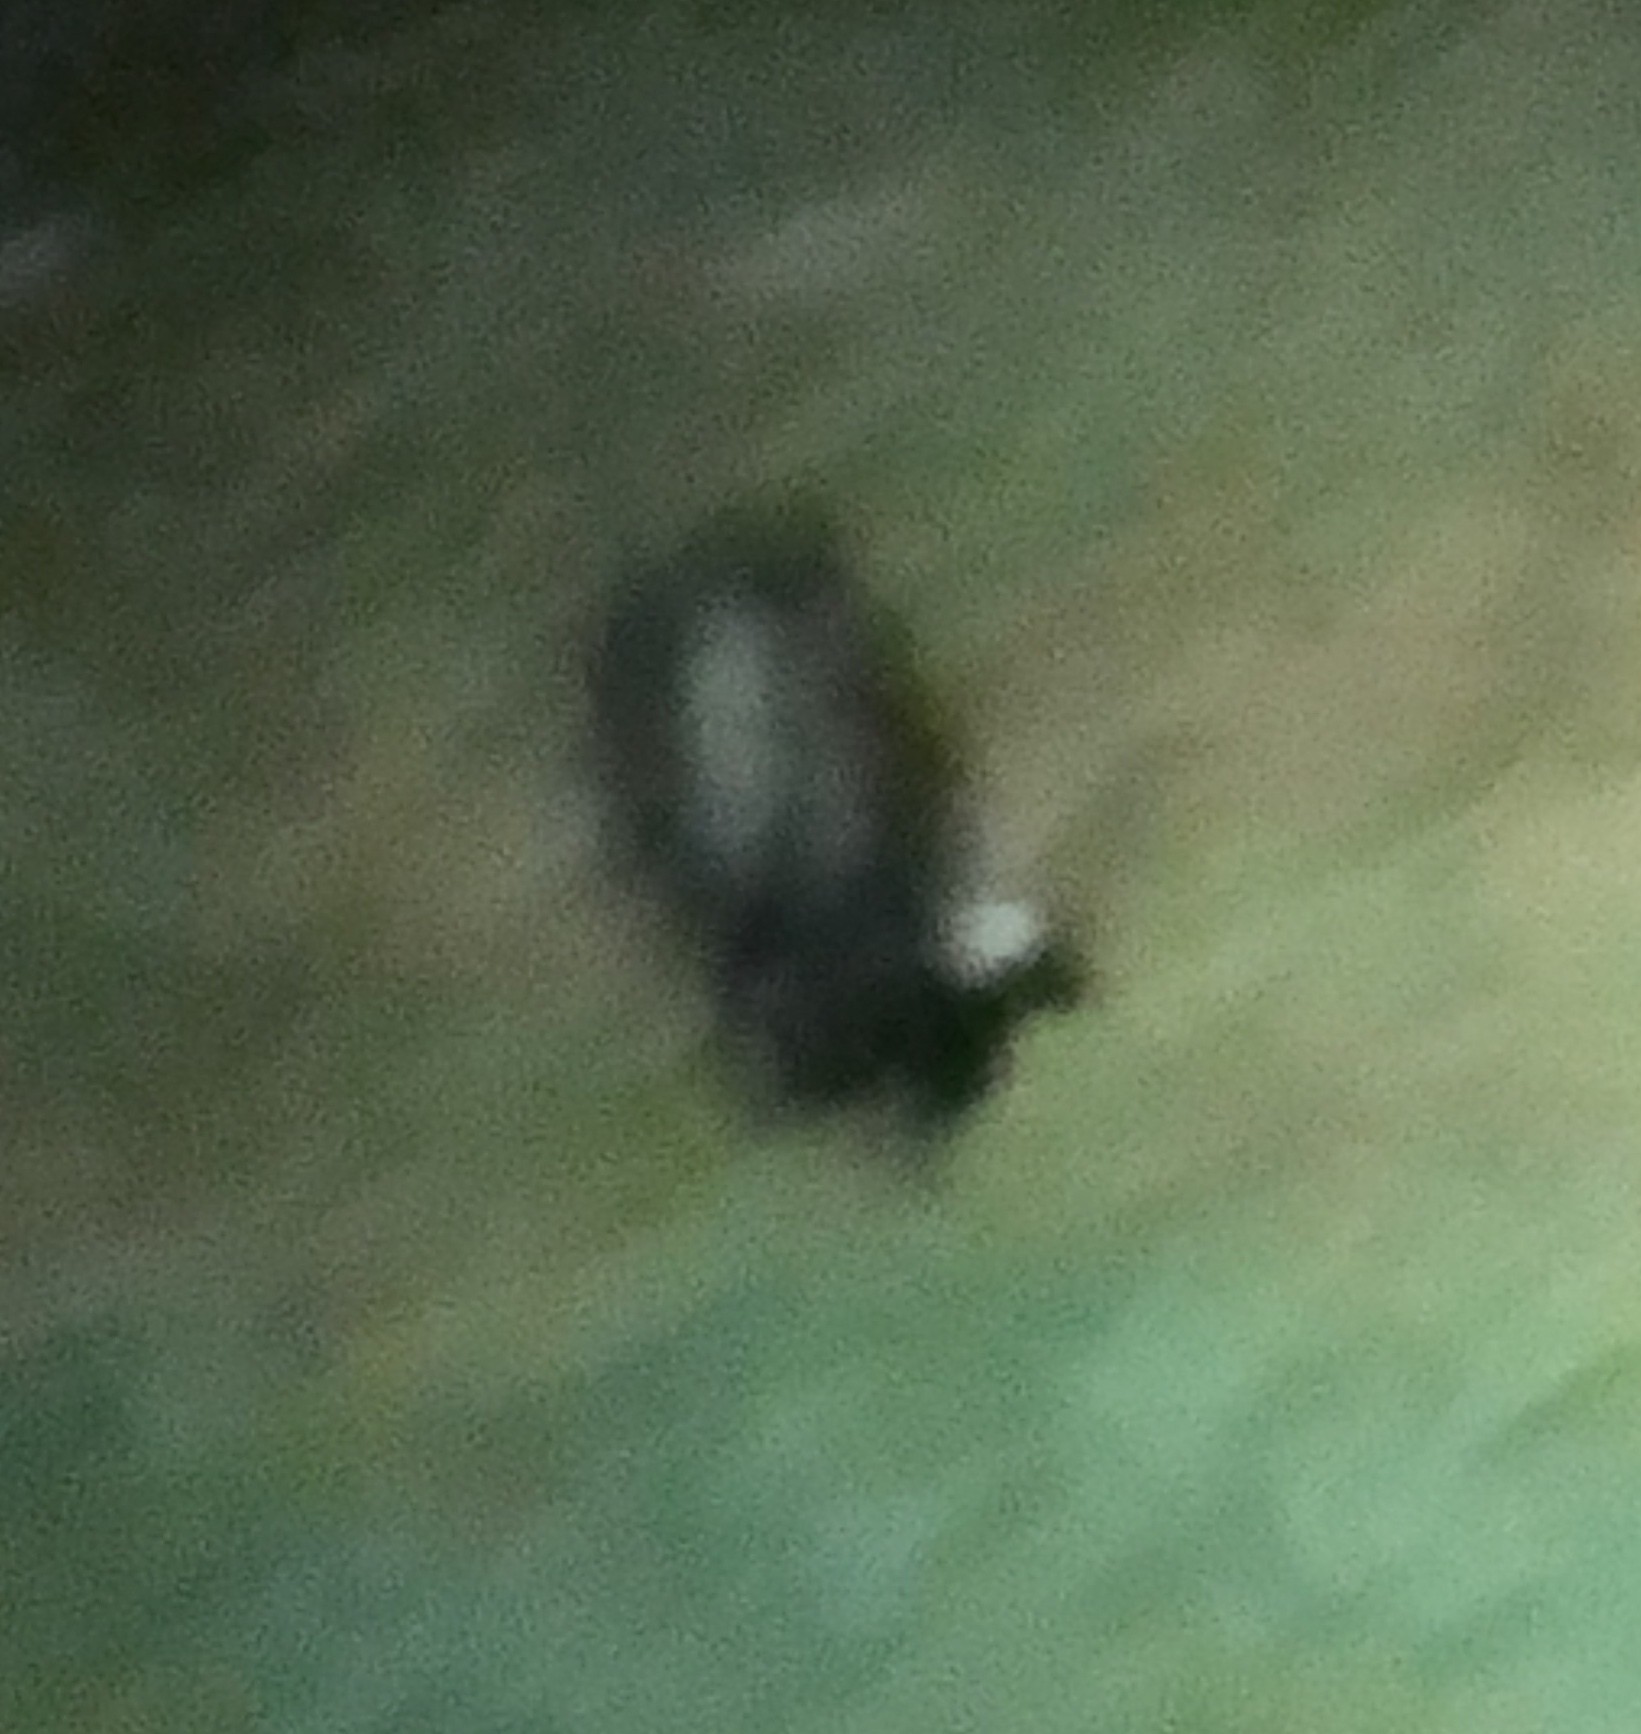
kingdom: Animalia
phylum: Chordata
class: Mammalia
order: Carnivora
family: Mephitidae
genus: Mephitis
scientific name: Mephitis mephitis
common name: Striped skunk
